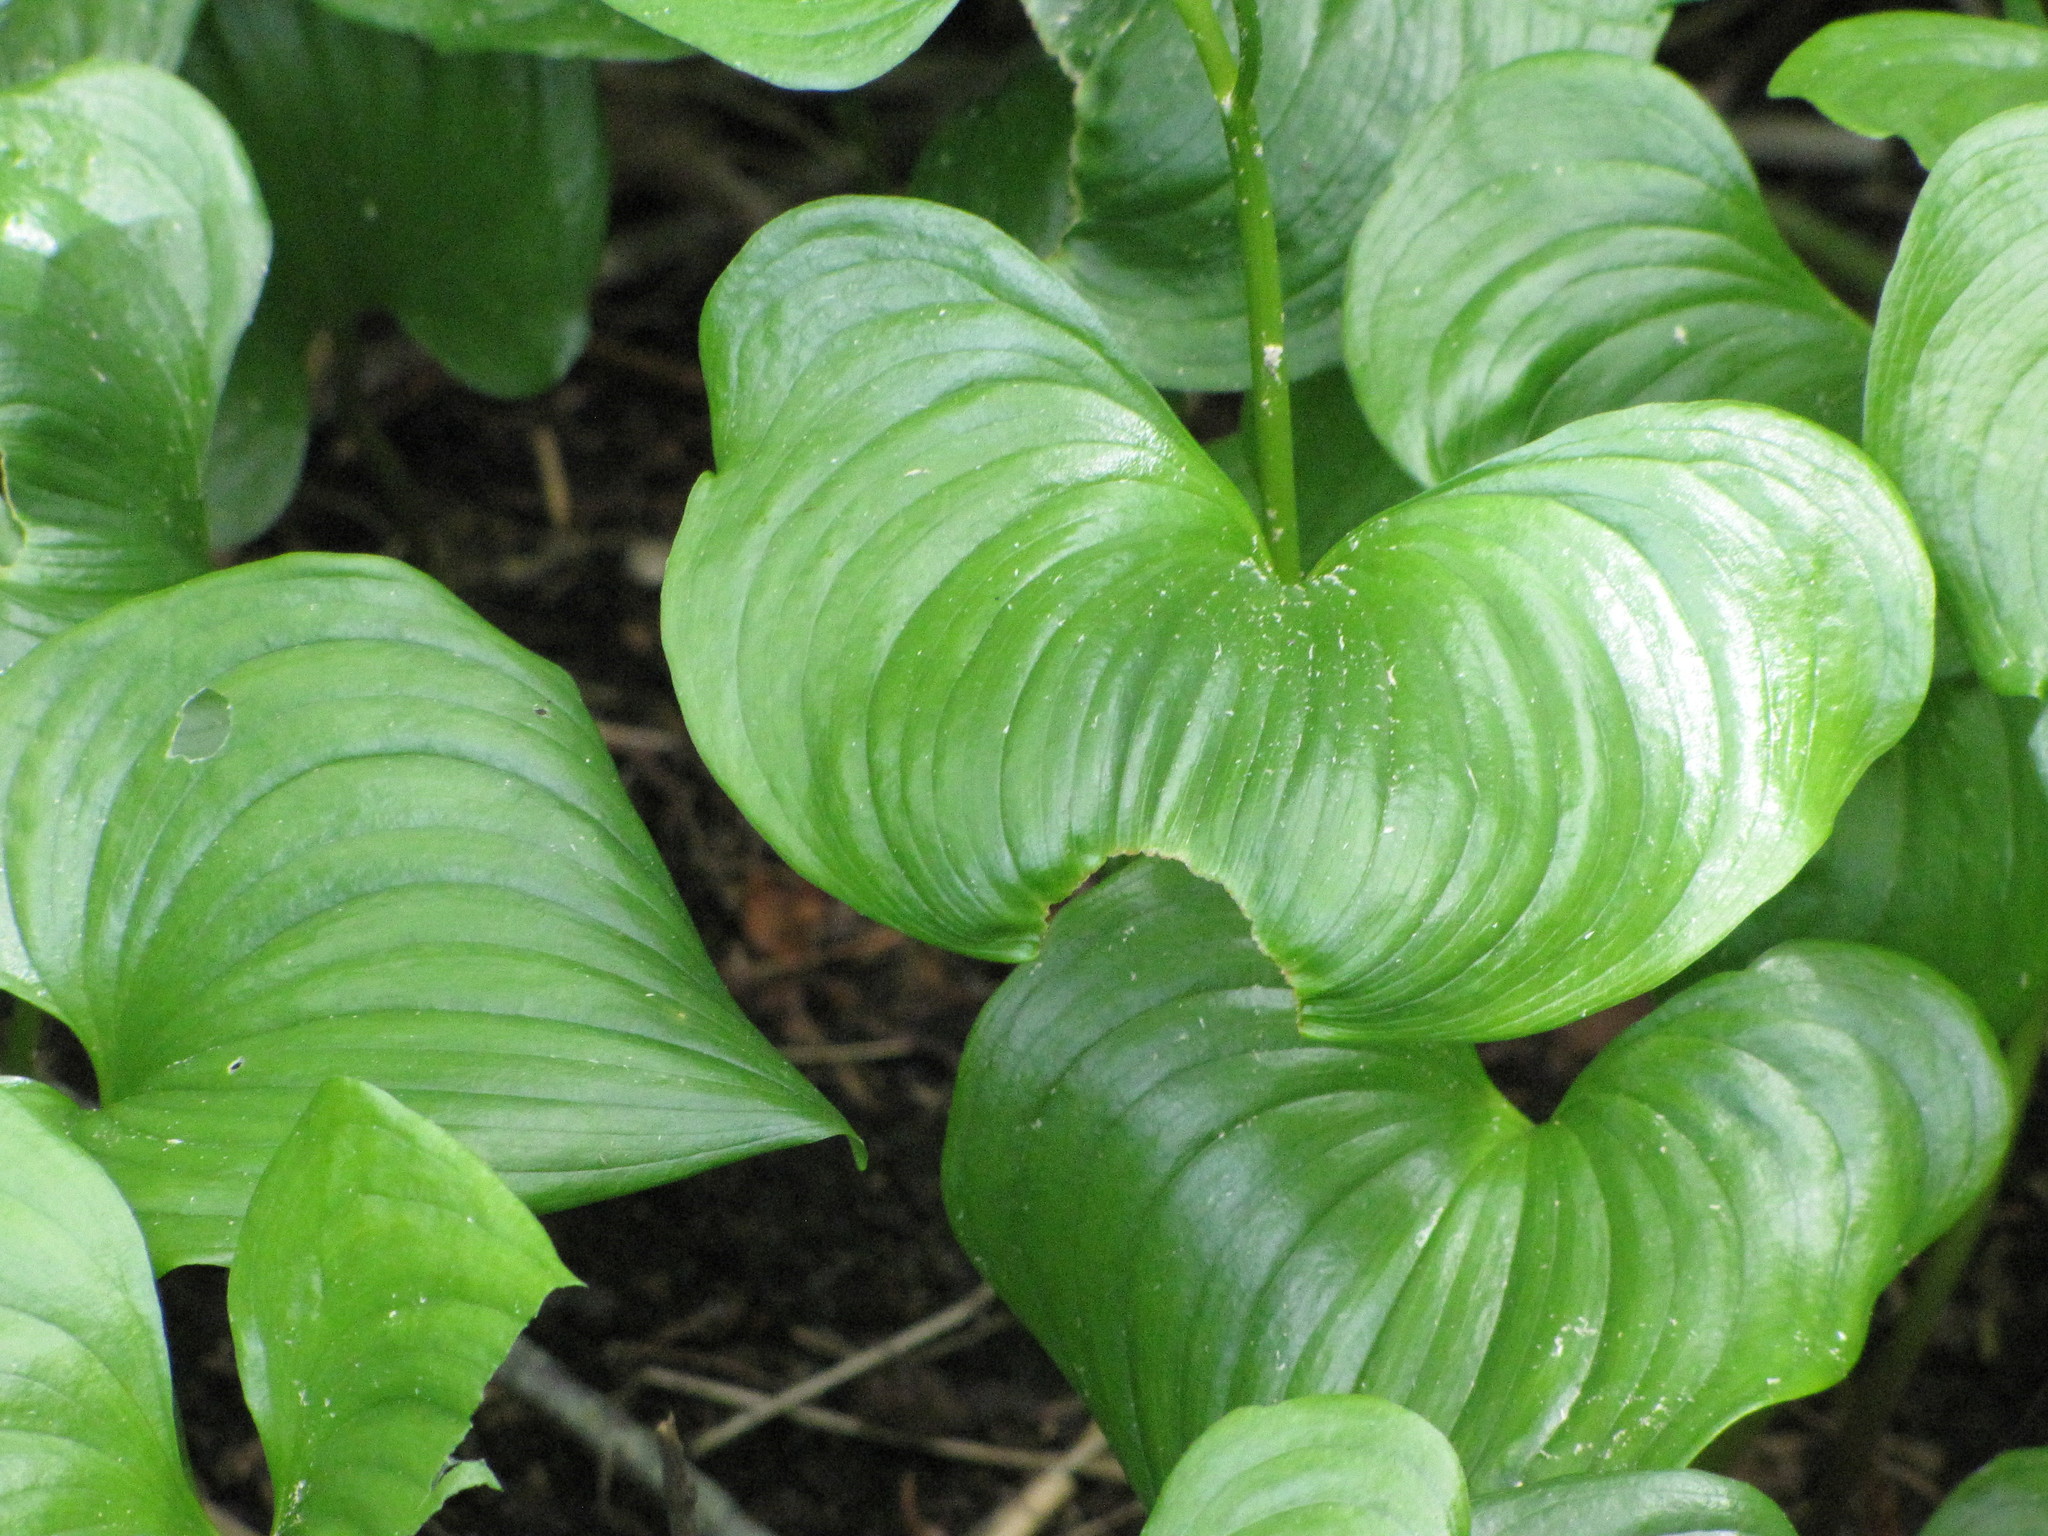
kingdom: Plantae
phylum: Tracheophyta
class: Liliopsida
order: Asparagales
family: Asparagaceae
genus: Maianthemum
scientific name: Maianthemum dilatatum
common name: False lily-of-the-valley
